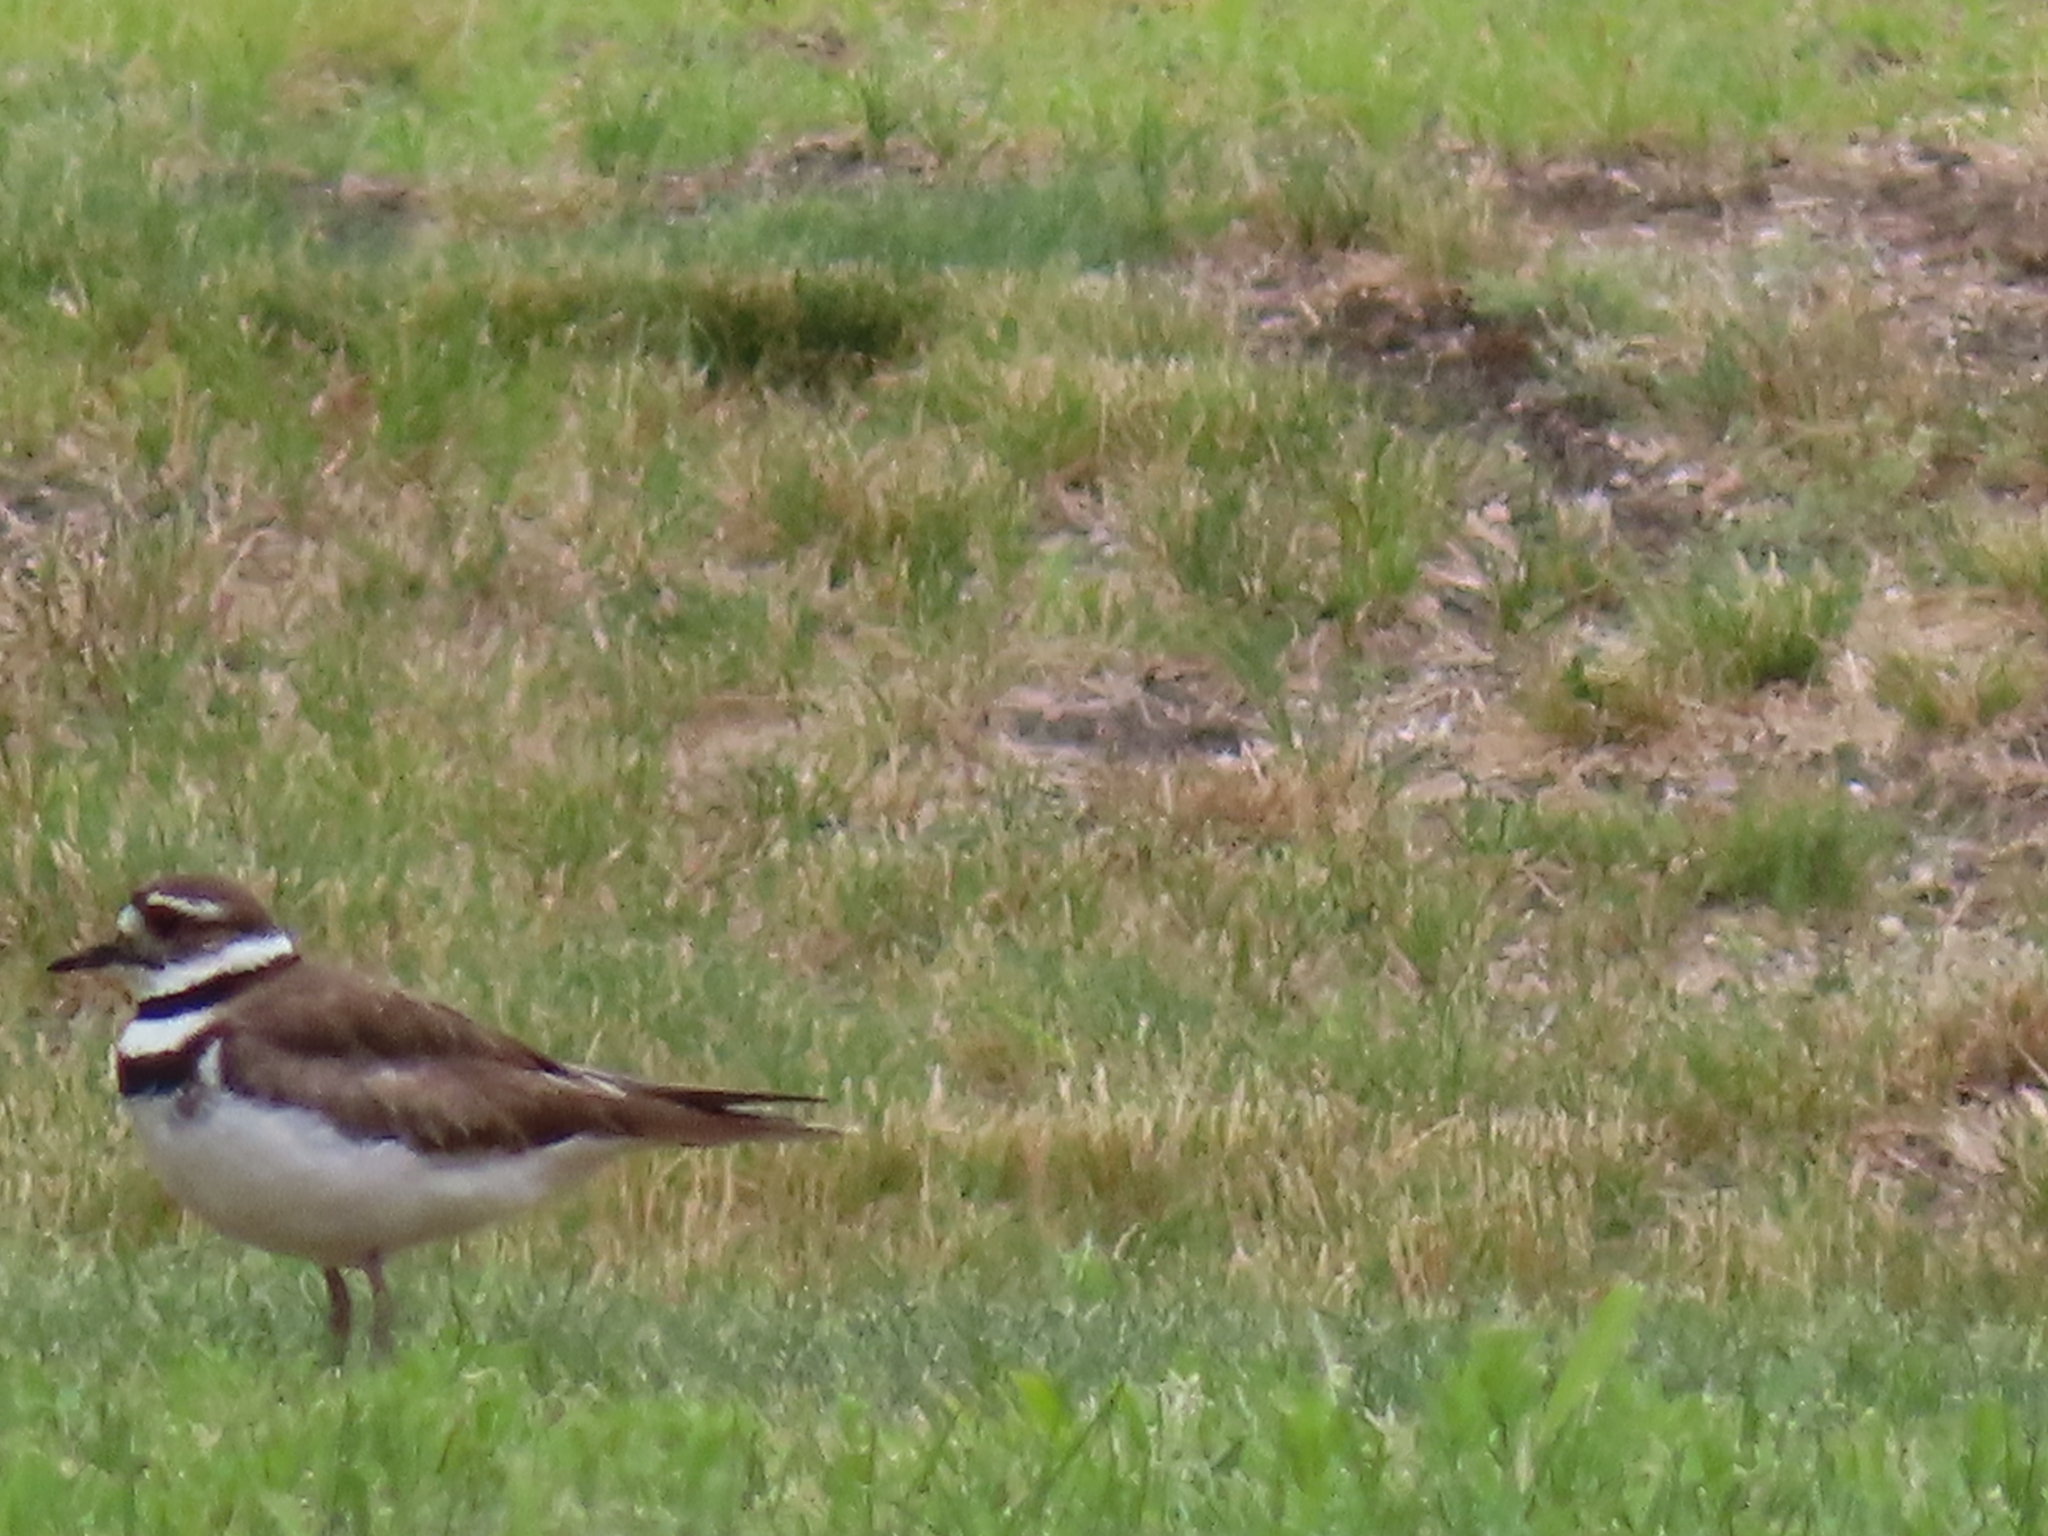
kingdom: Animalia
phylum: Chordata
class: Aves
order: Charadriiformes
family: Charadriidae
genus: Charadrius
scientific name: Charadrius vociferus
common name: Killdeer
